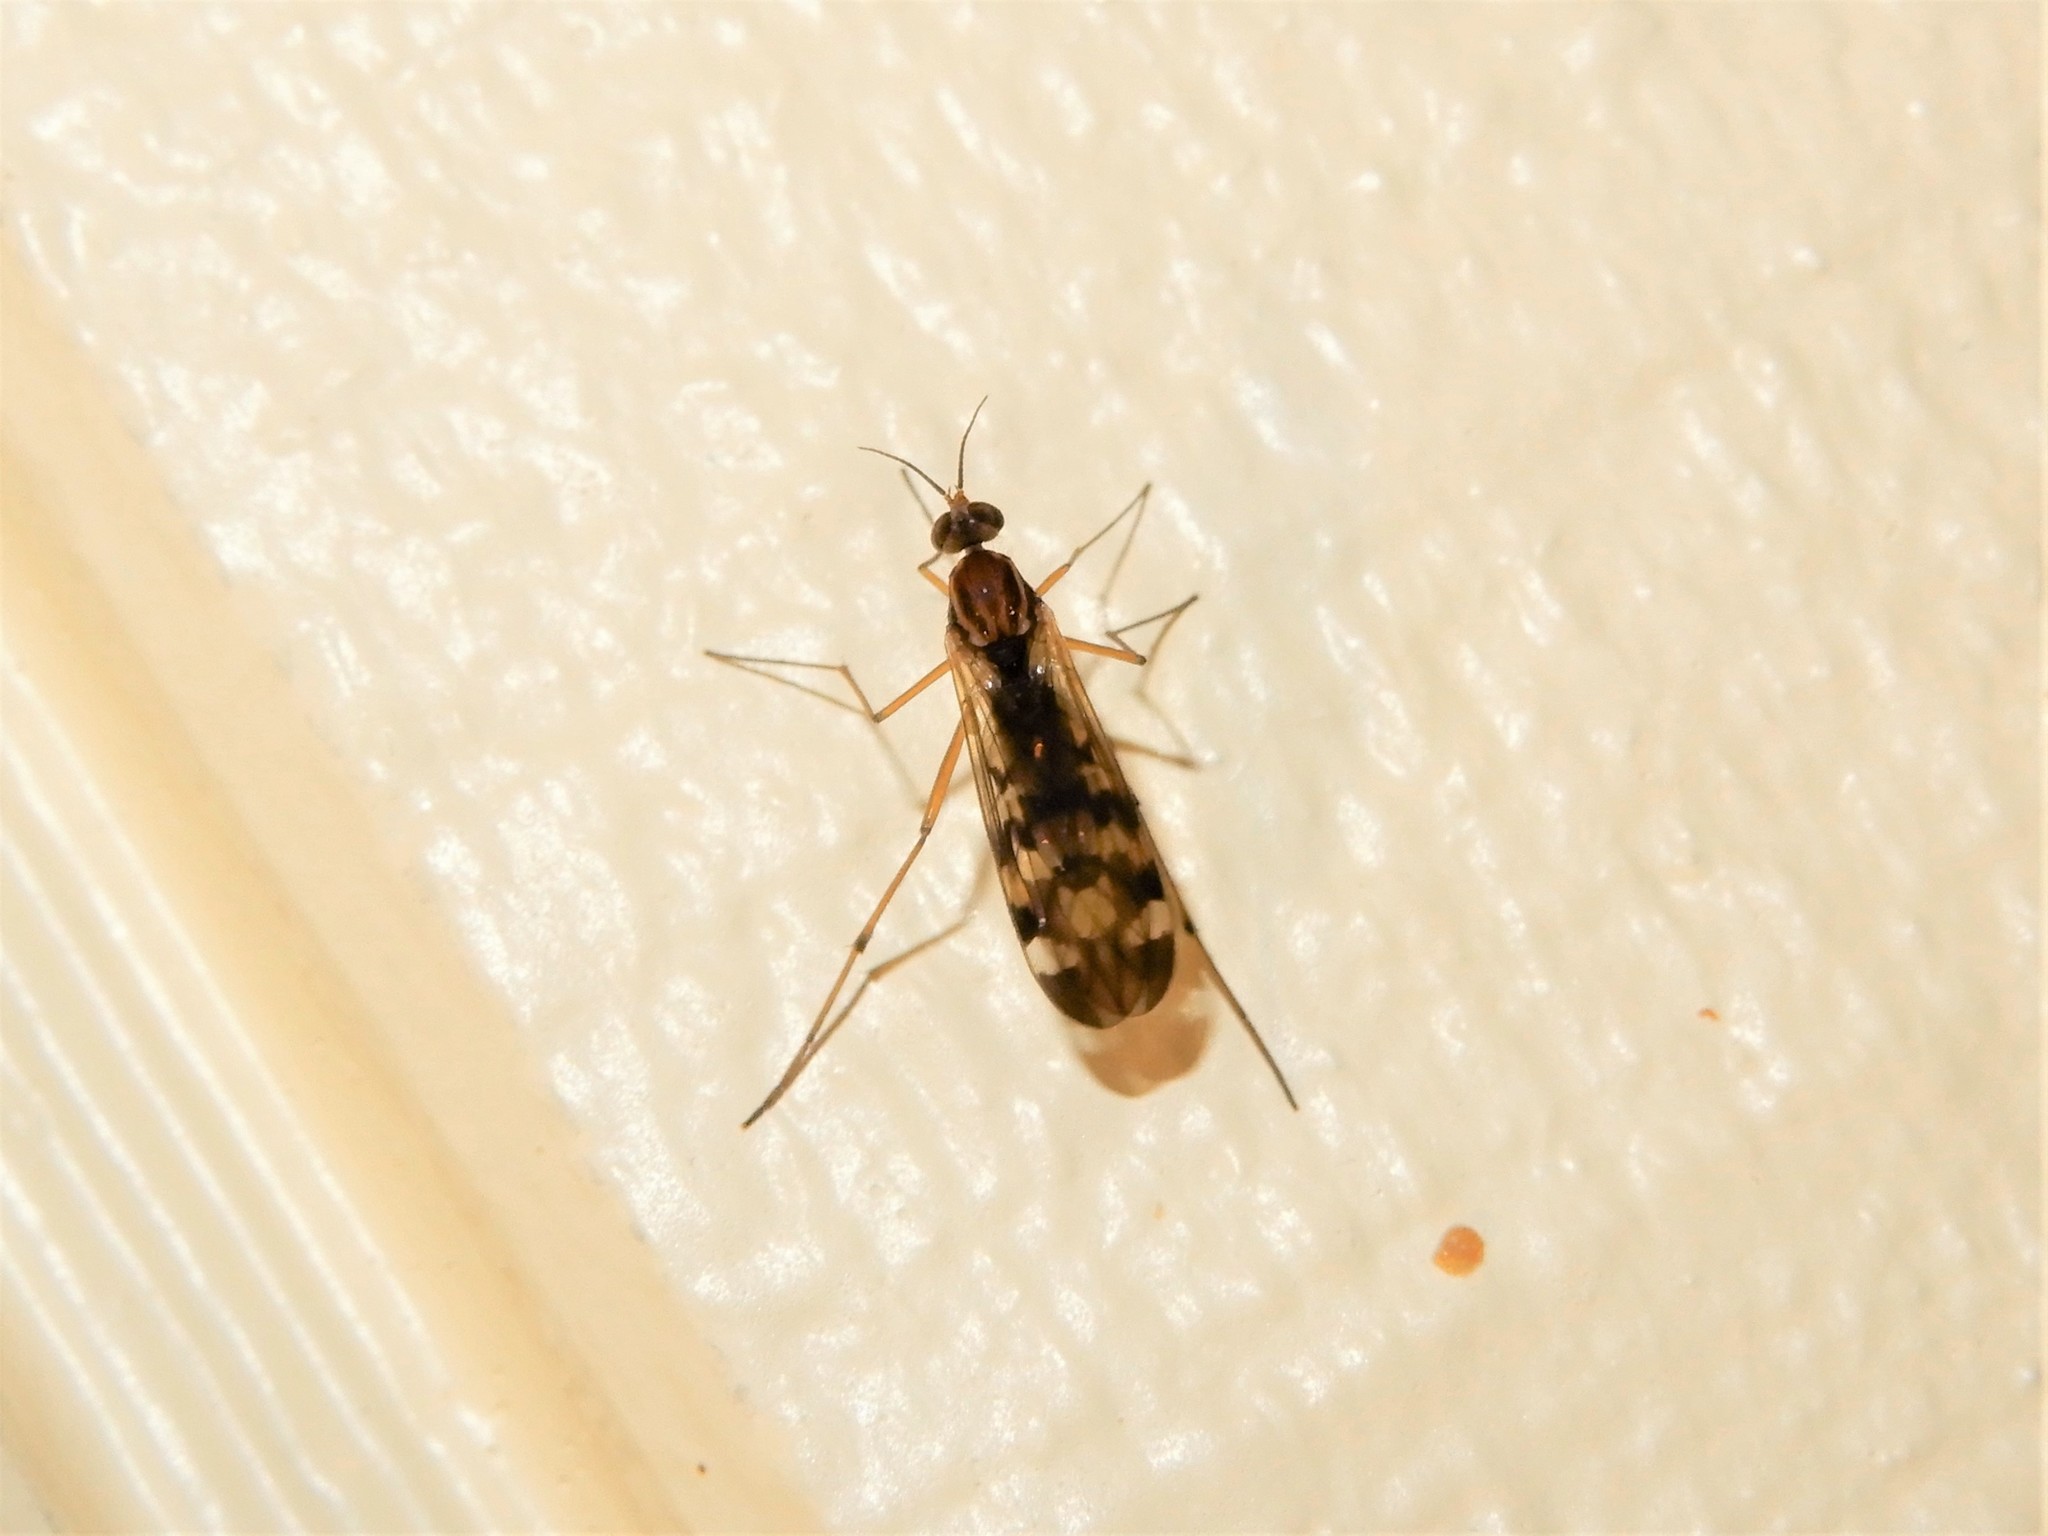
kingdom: Animalia
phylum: Arthropoda
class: Insecta
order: Diptera
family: Anisopodidae
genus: Sylvicola
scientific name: Sylvicola notatus
